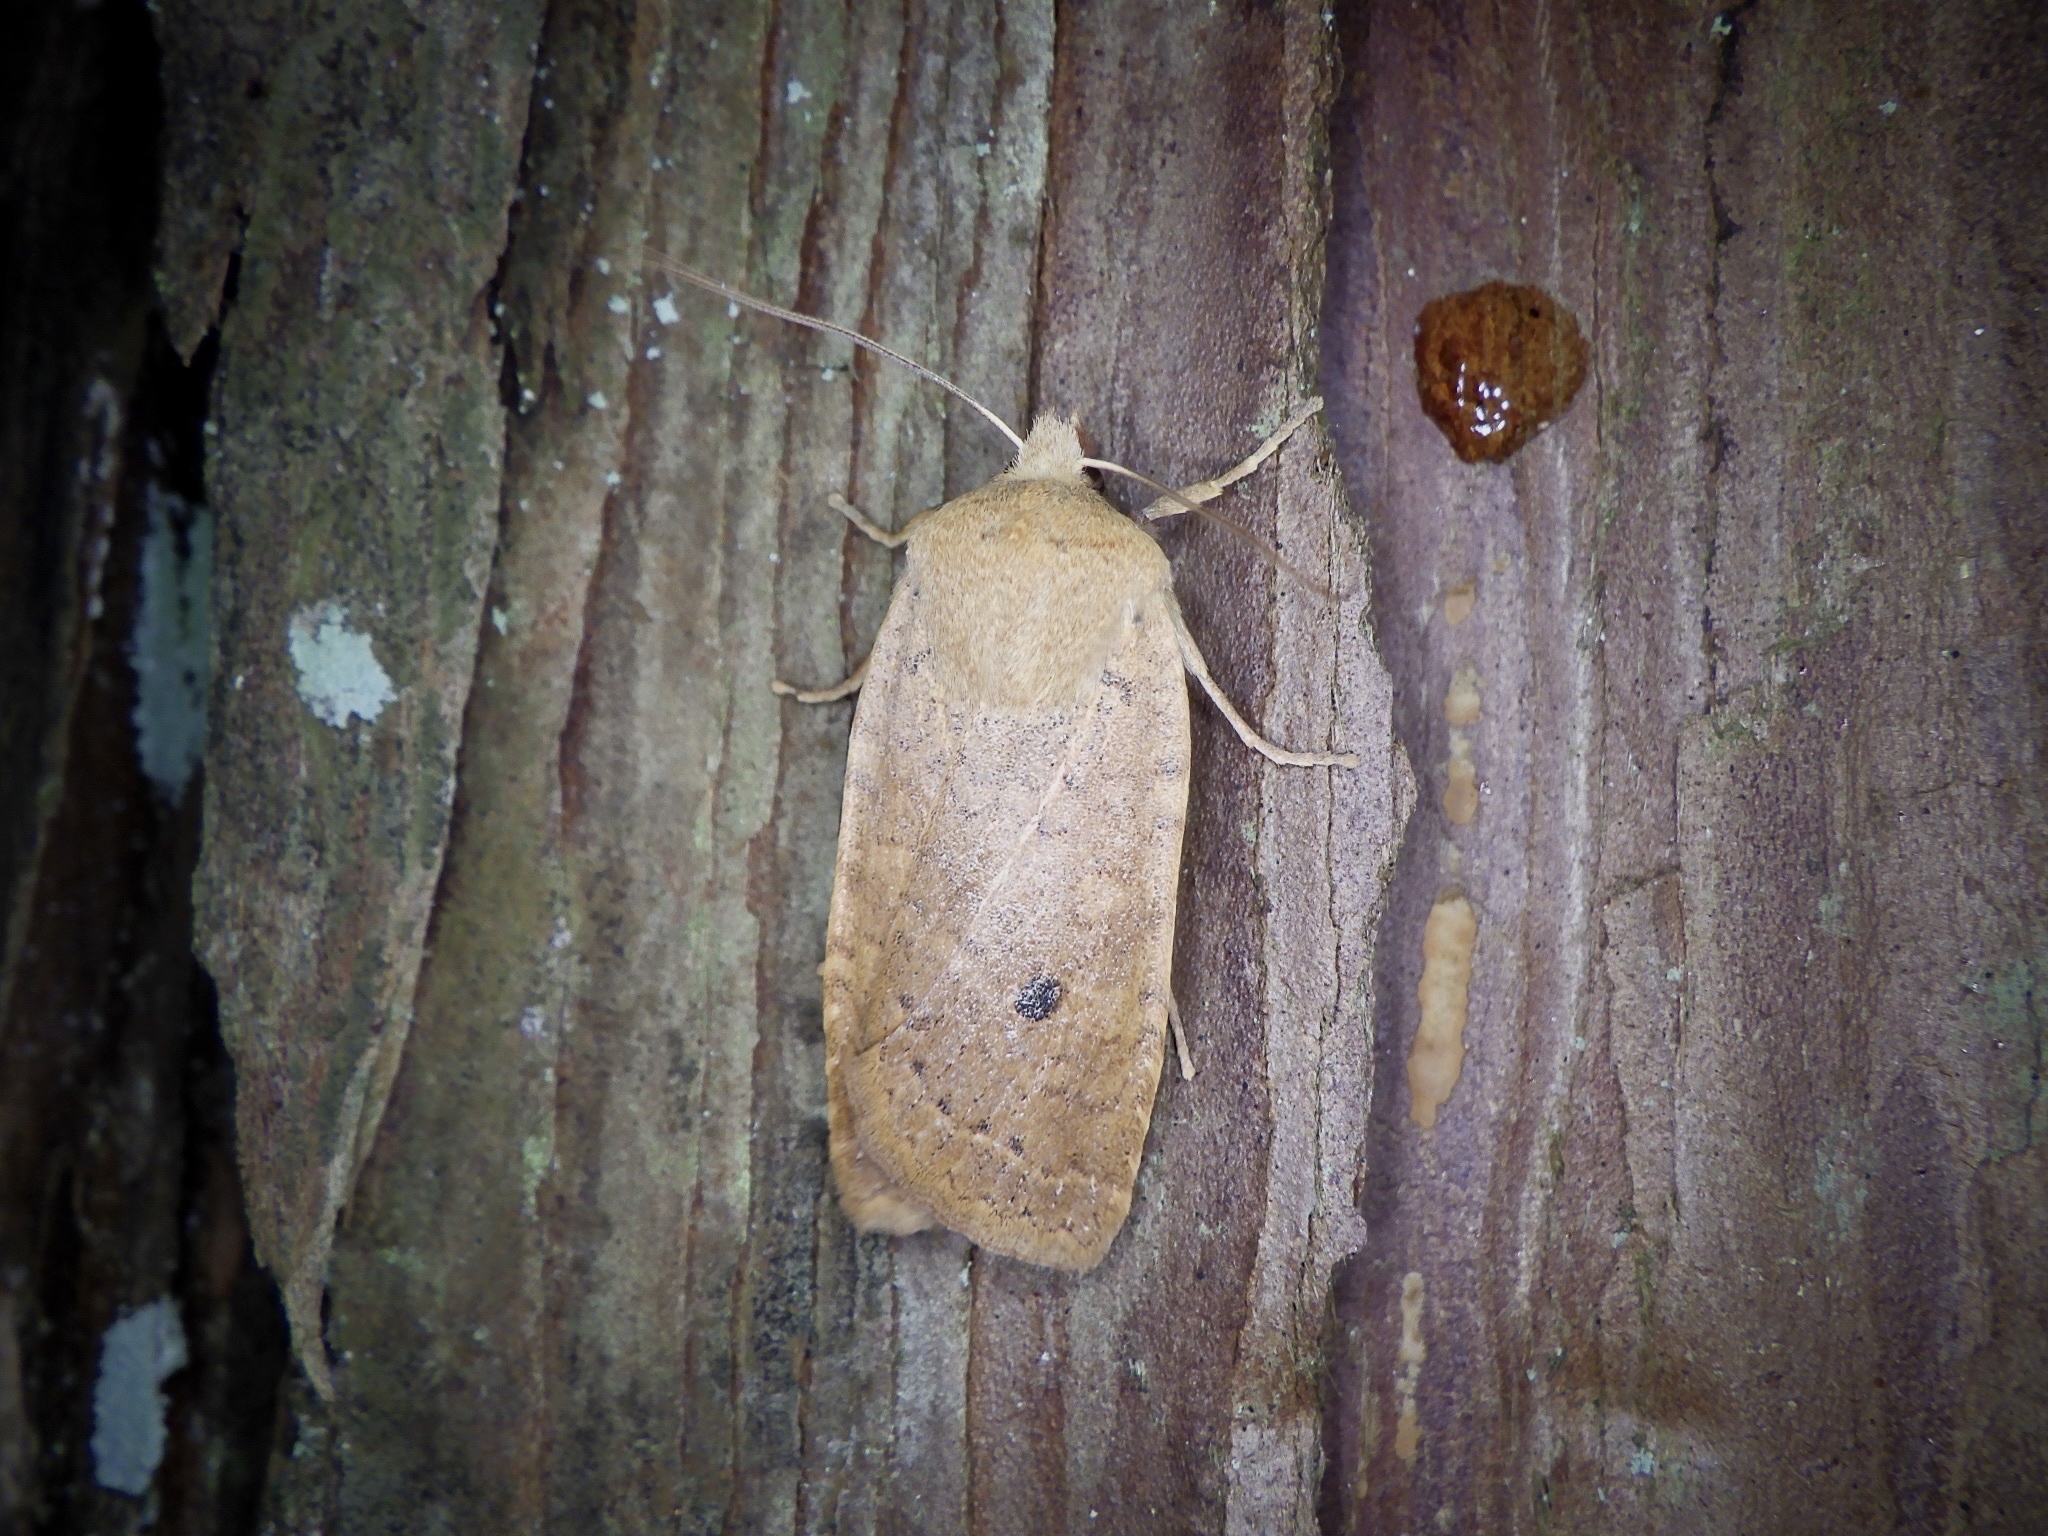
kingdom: Animalia
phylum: Arthropoda
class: Insecta
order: Lepidoptera
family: Noctuidae
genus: Conistra
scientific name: Conistra albipuncta
